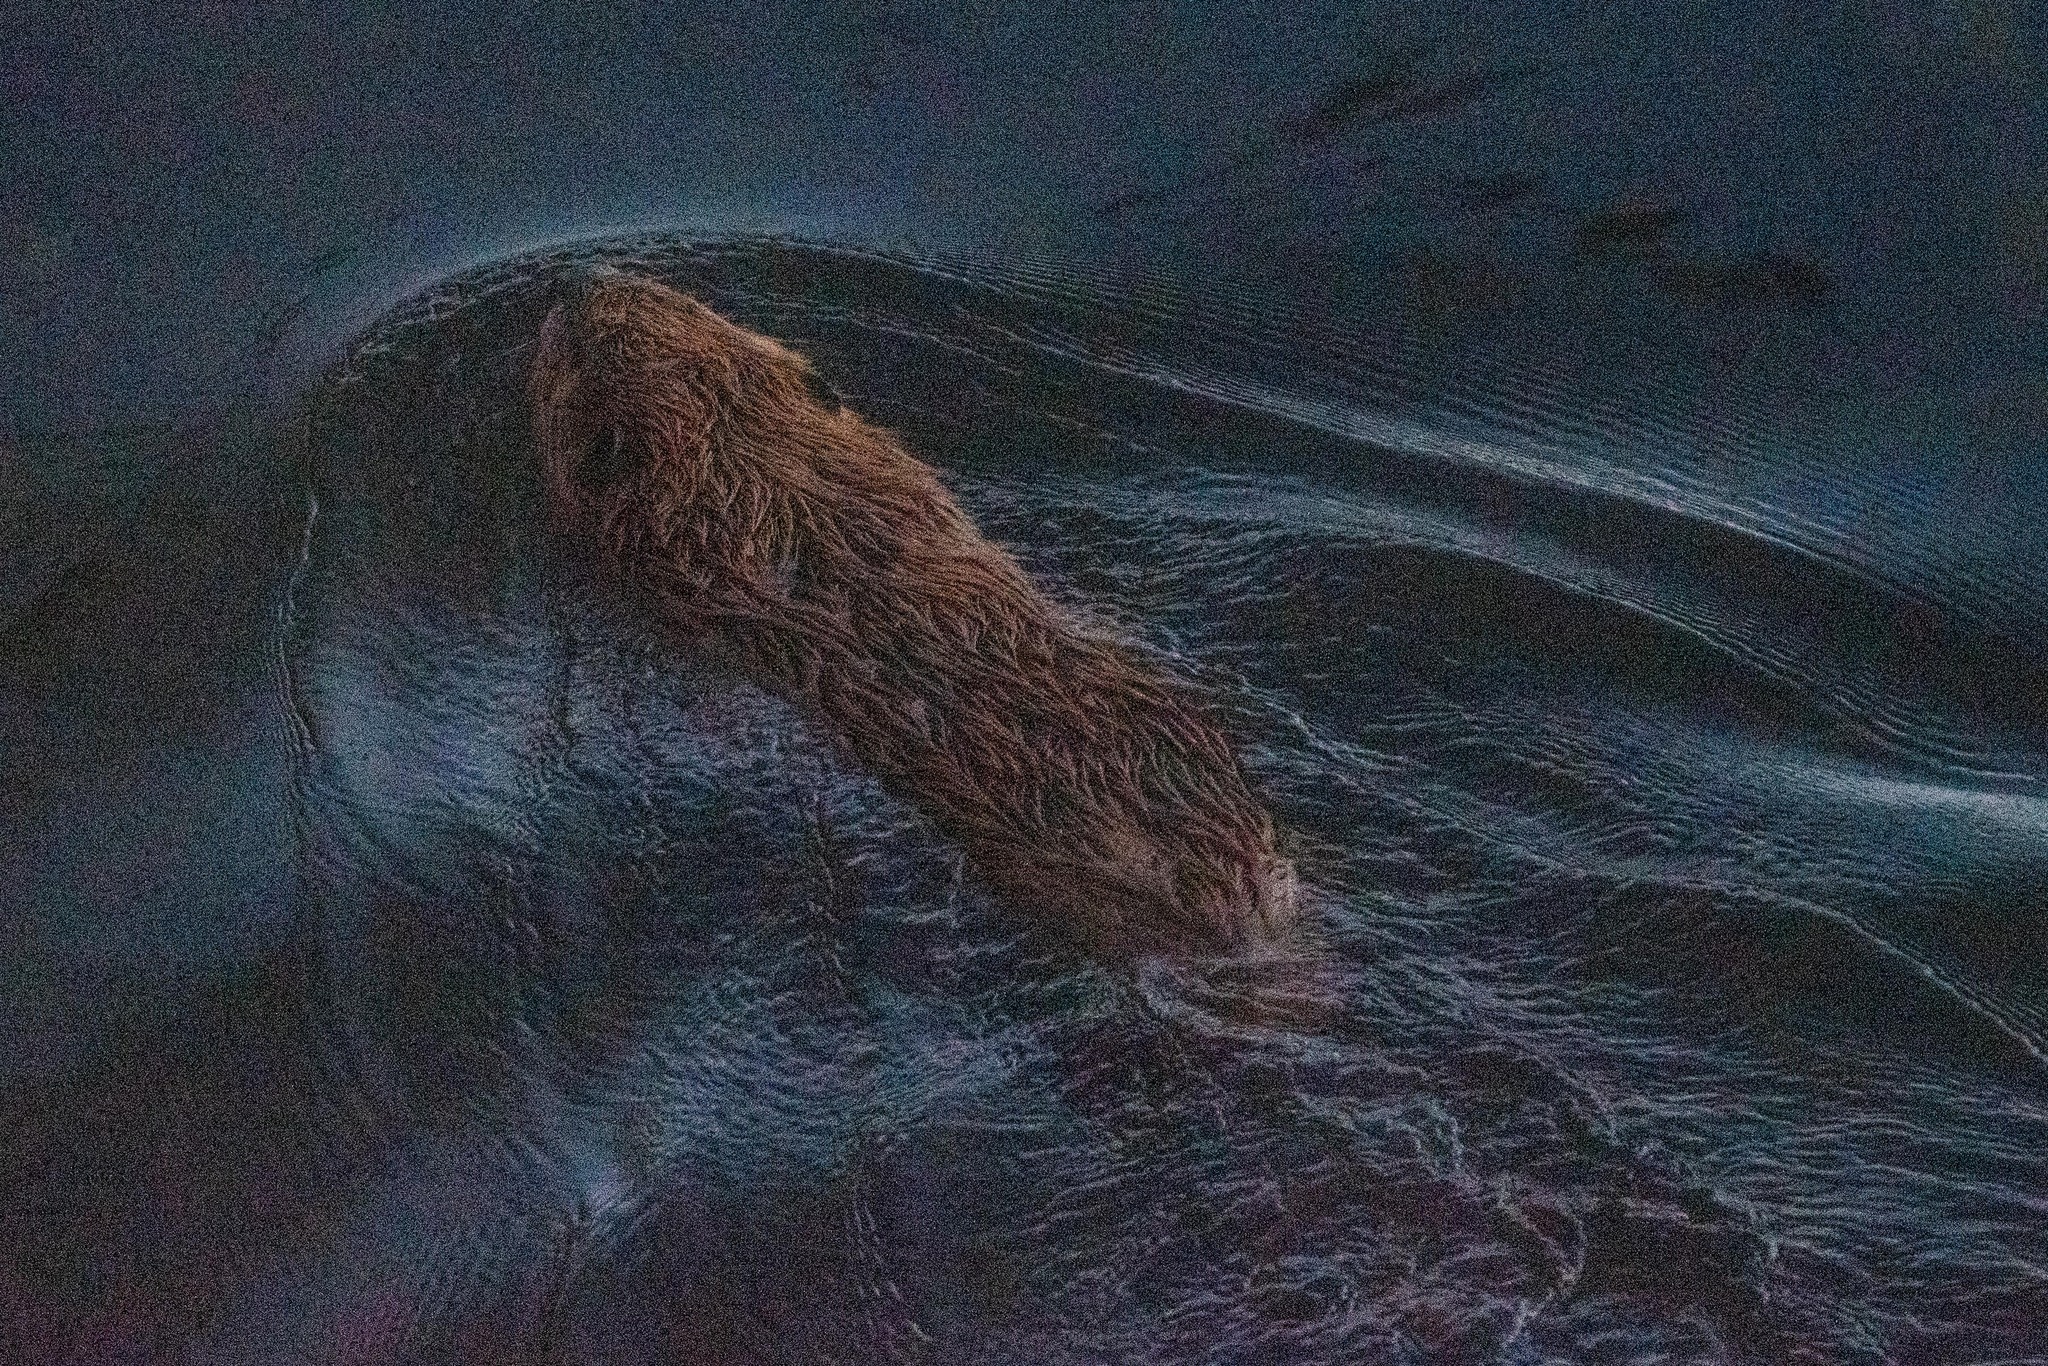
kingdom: Animalia
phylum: Chordata
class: Mammalia
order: Rodentia
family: Castoridae
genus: Castor
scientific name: Castor canadensis
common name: American beaver
